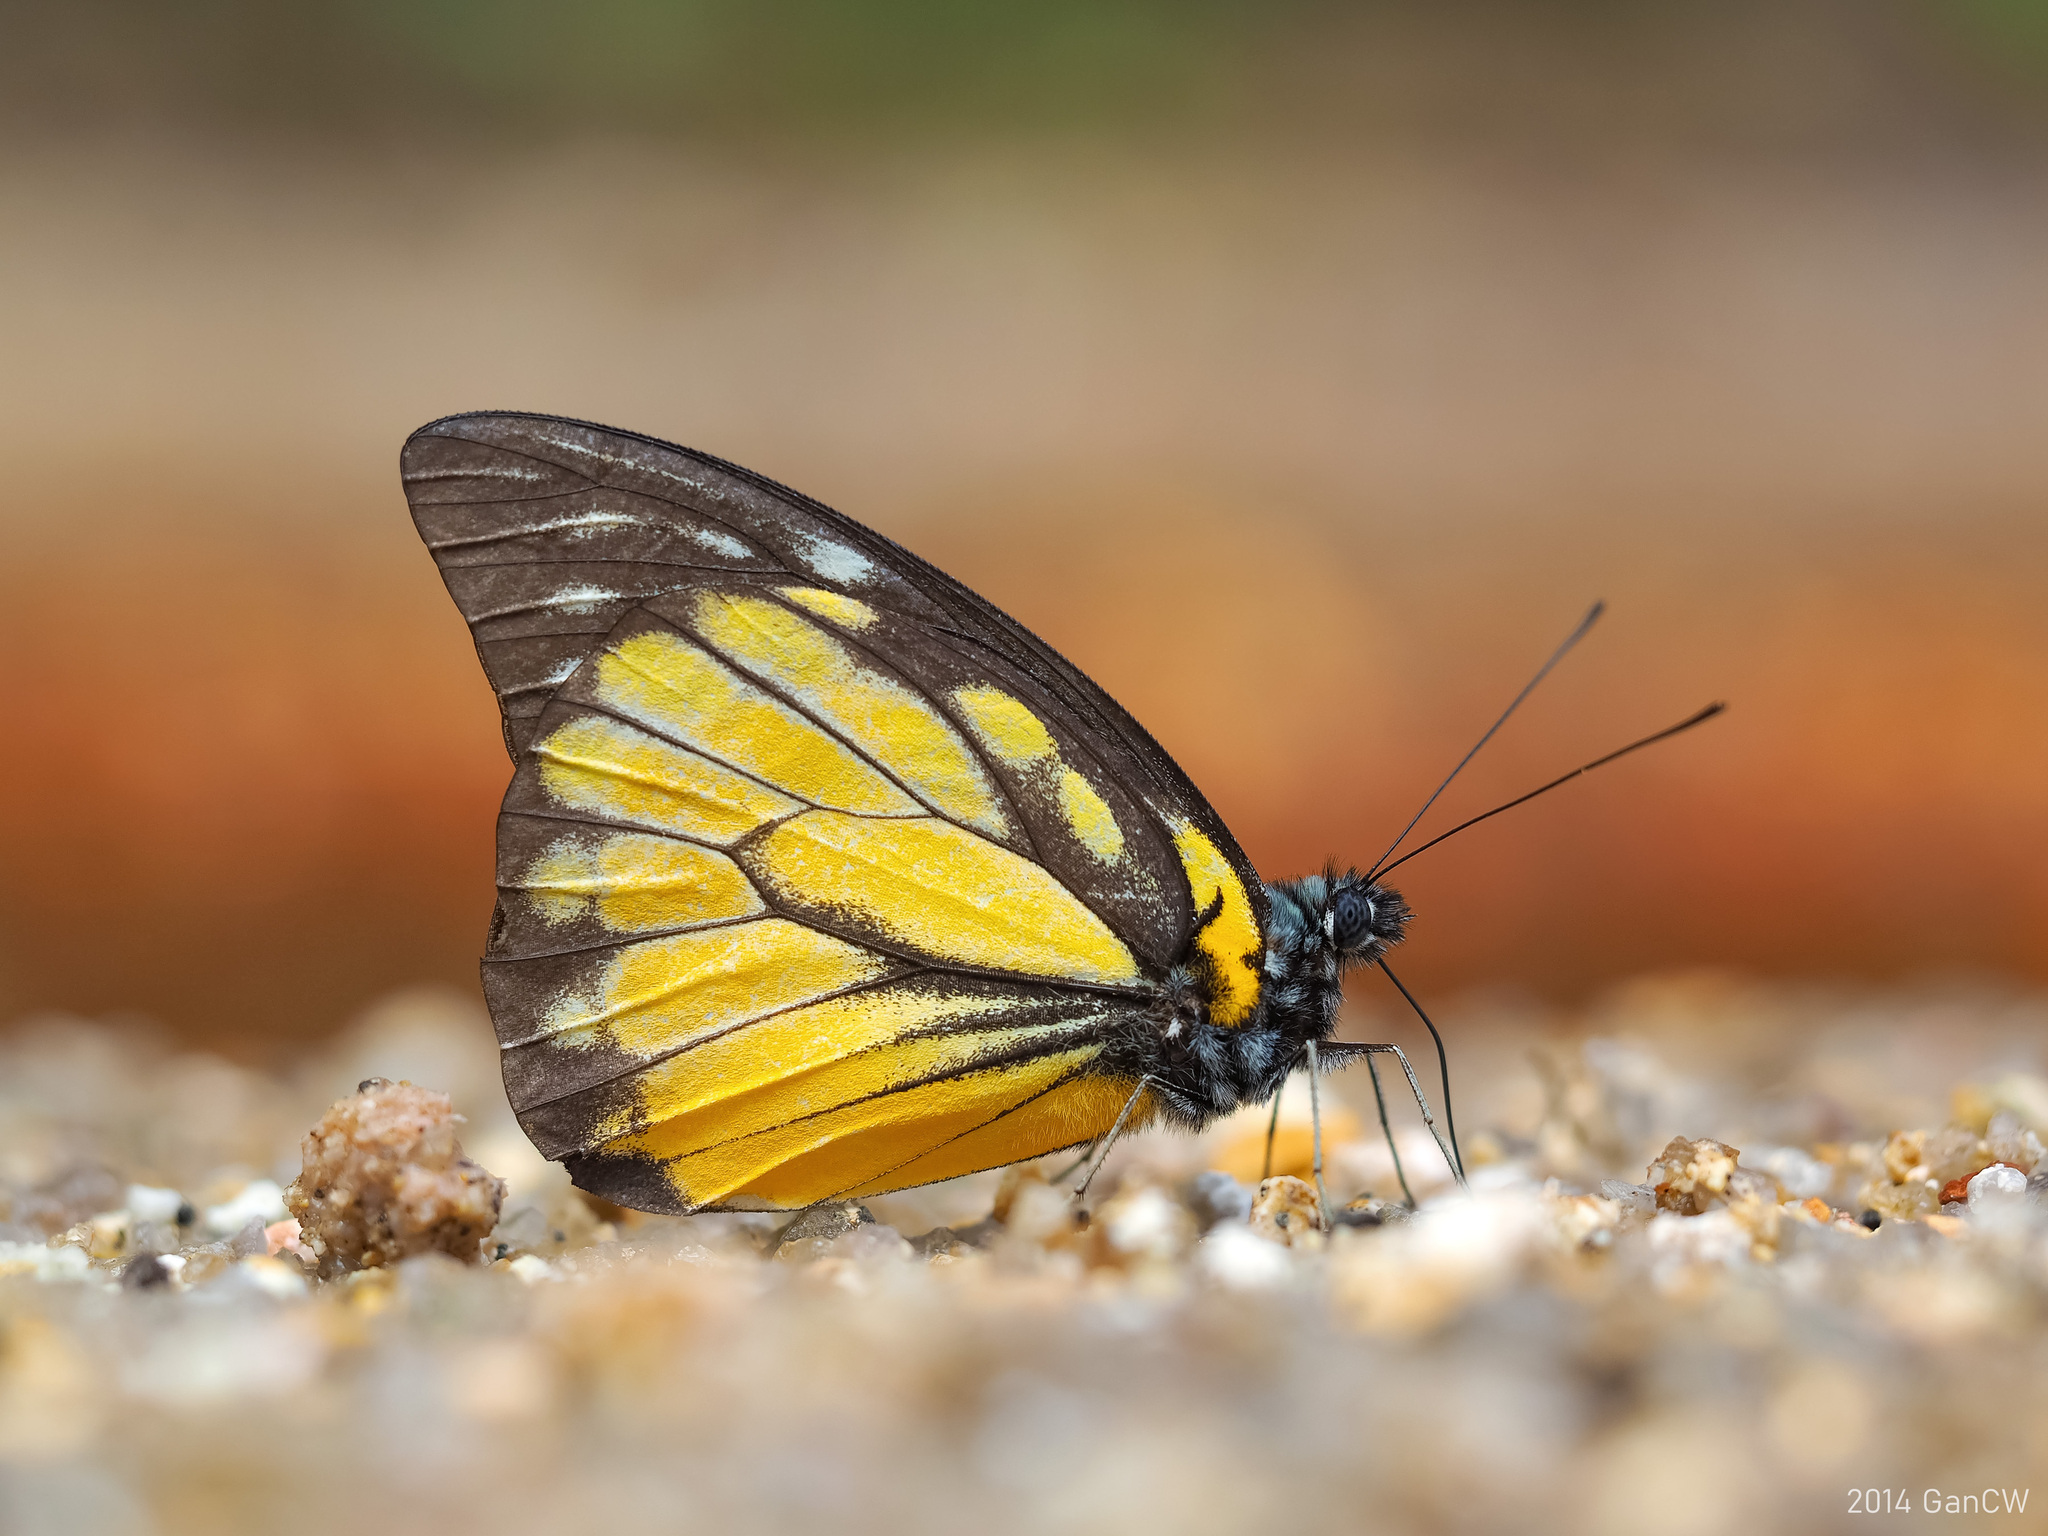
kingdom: Animalia
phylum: Arthropoda
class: Insecta
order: Lepidoptera
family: Pieridae
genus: Prioneris
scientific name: Prioneris thestylis
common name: Spotted sawtooth
